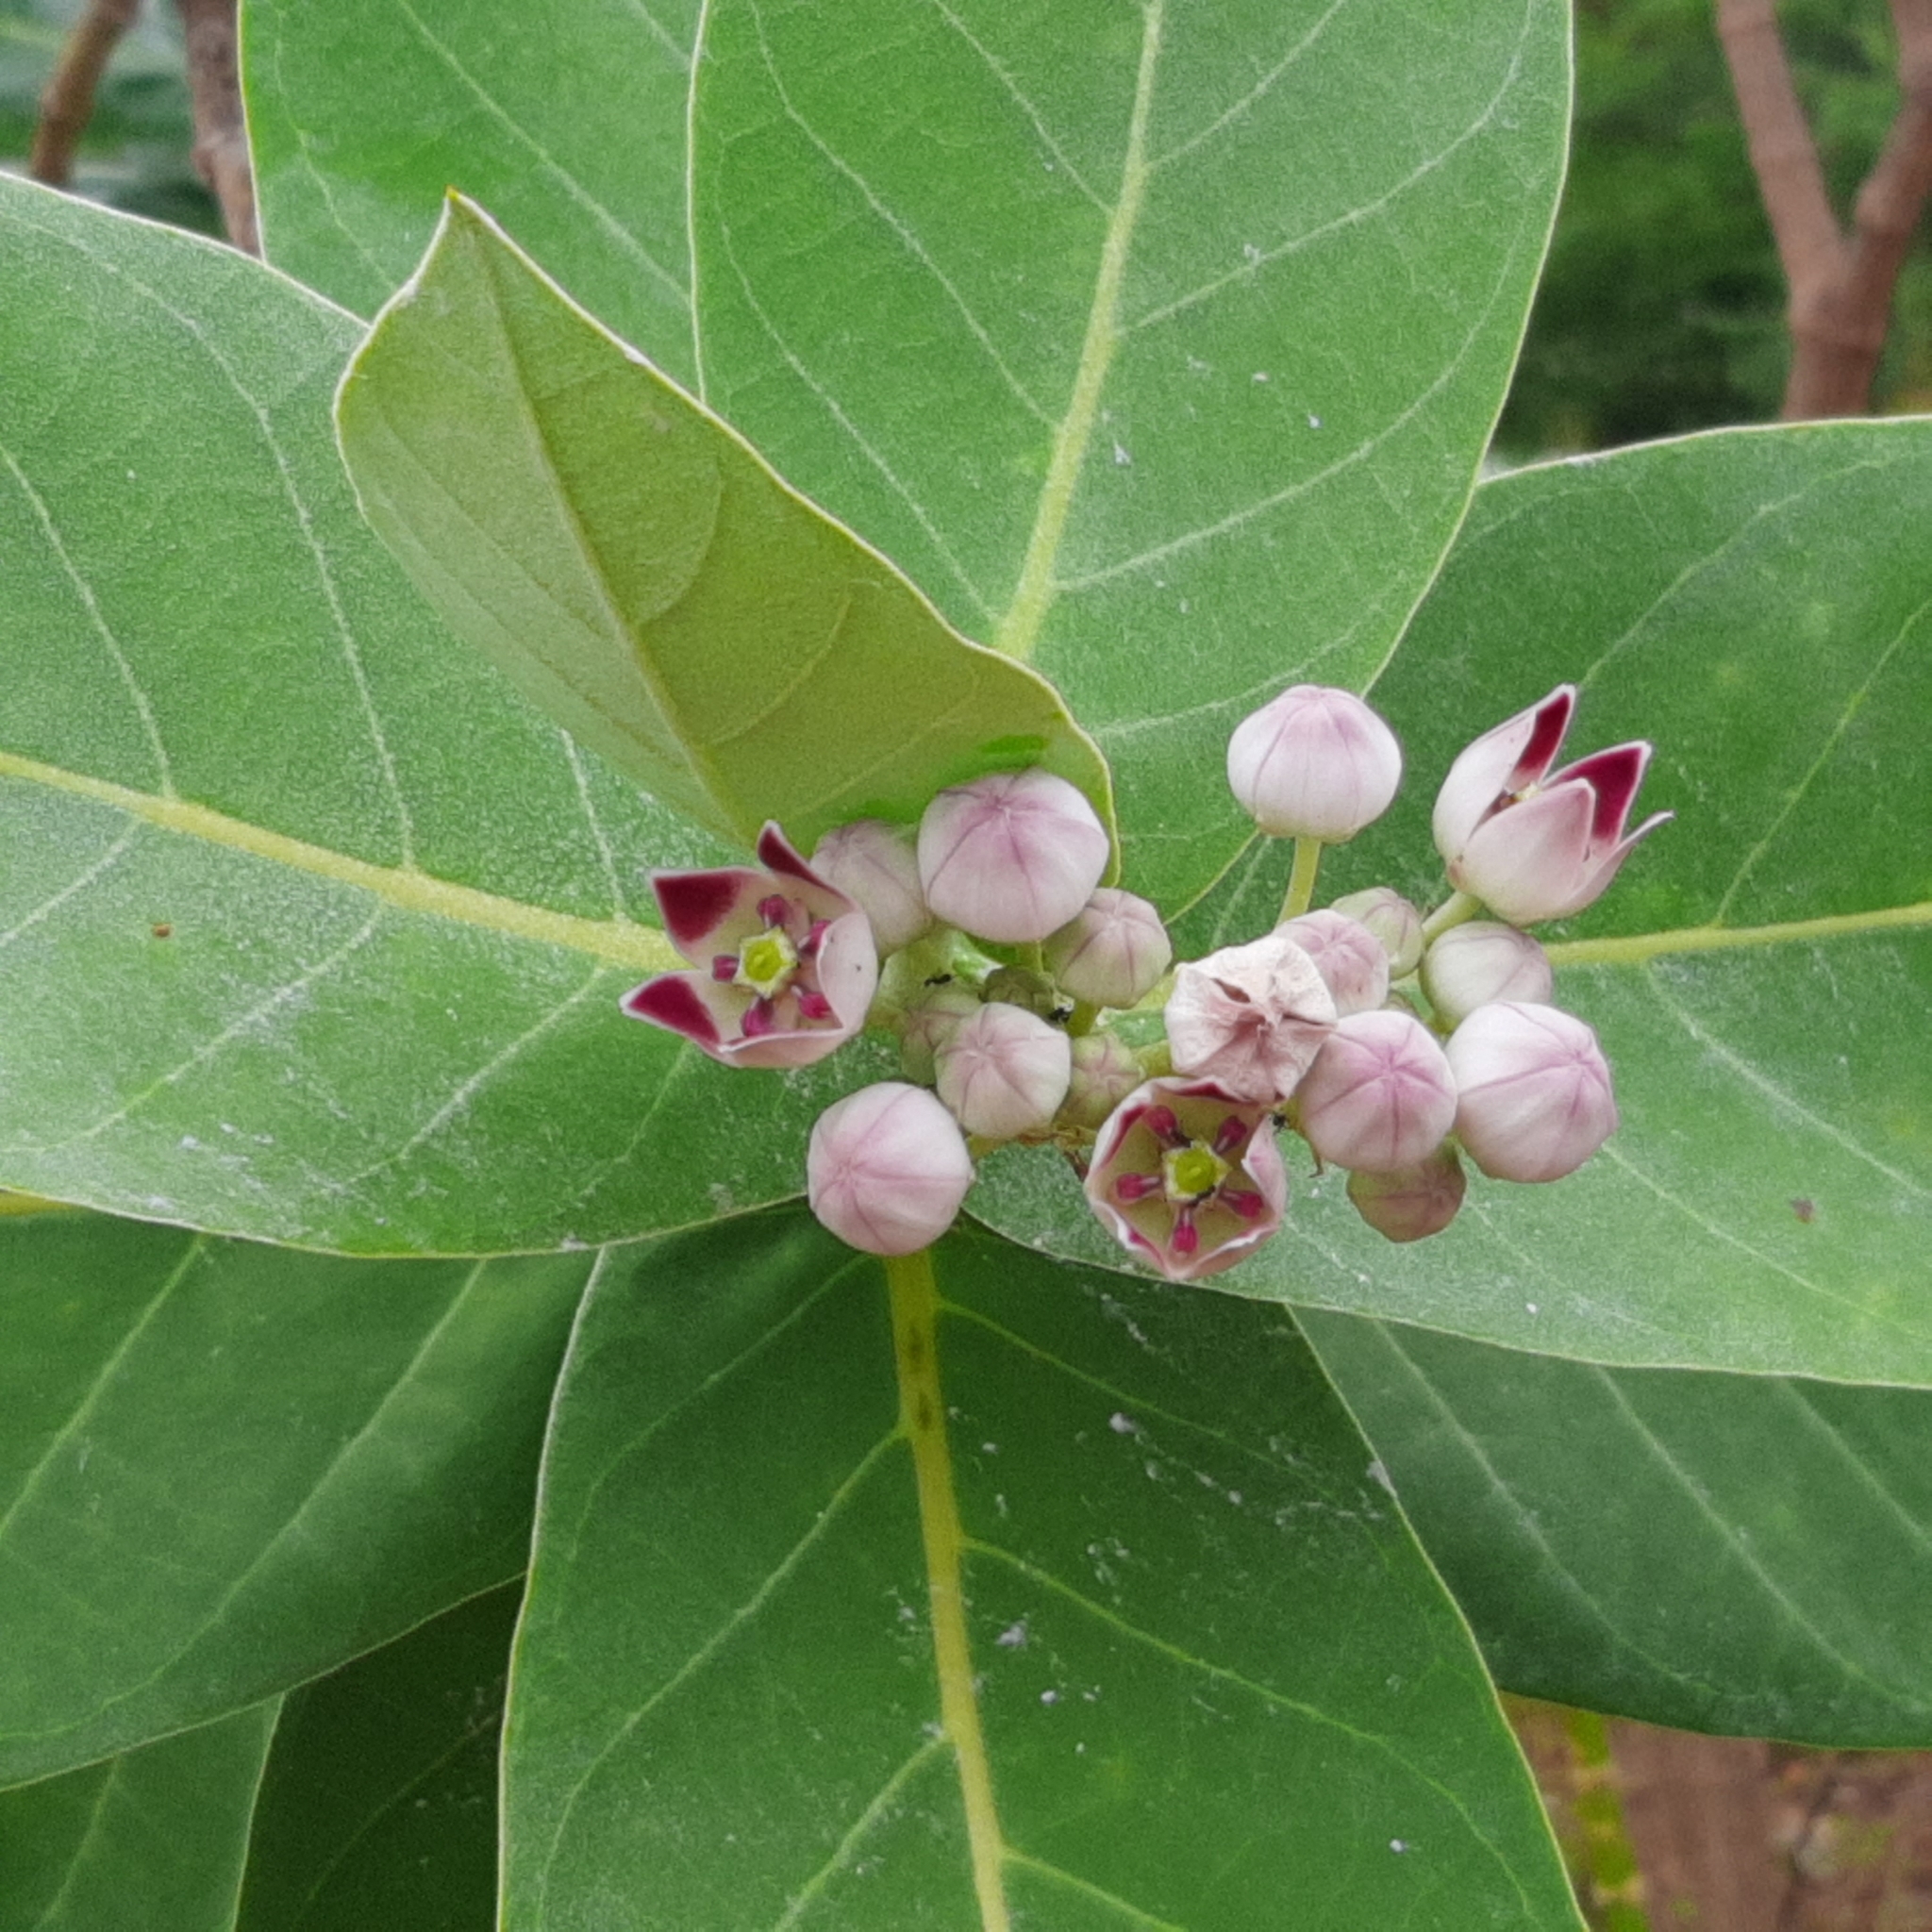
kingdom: Plantae
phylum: Tracheophyta
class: Magnoliopsida
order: Gentianales
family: Apocynaceae
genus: Calotropis
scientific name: Calotropis procera
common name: Roostertree
